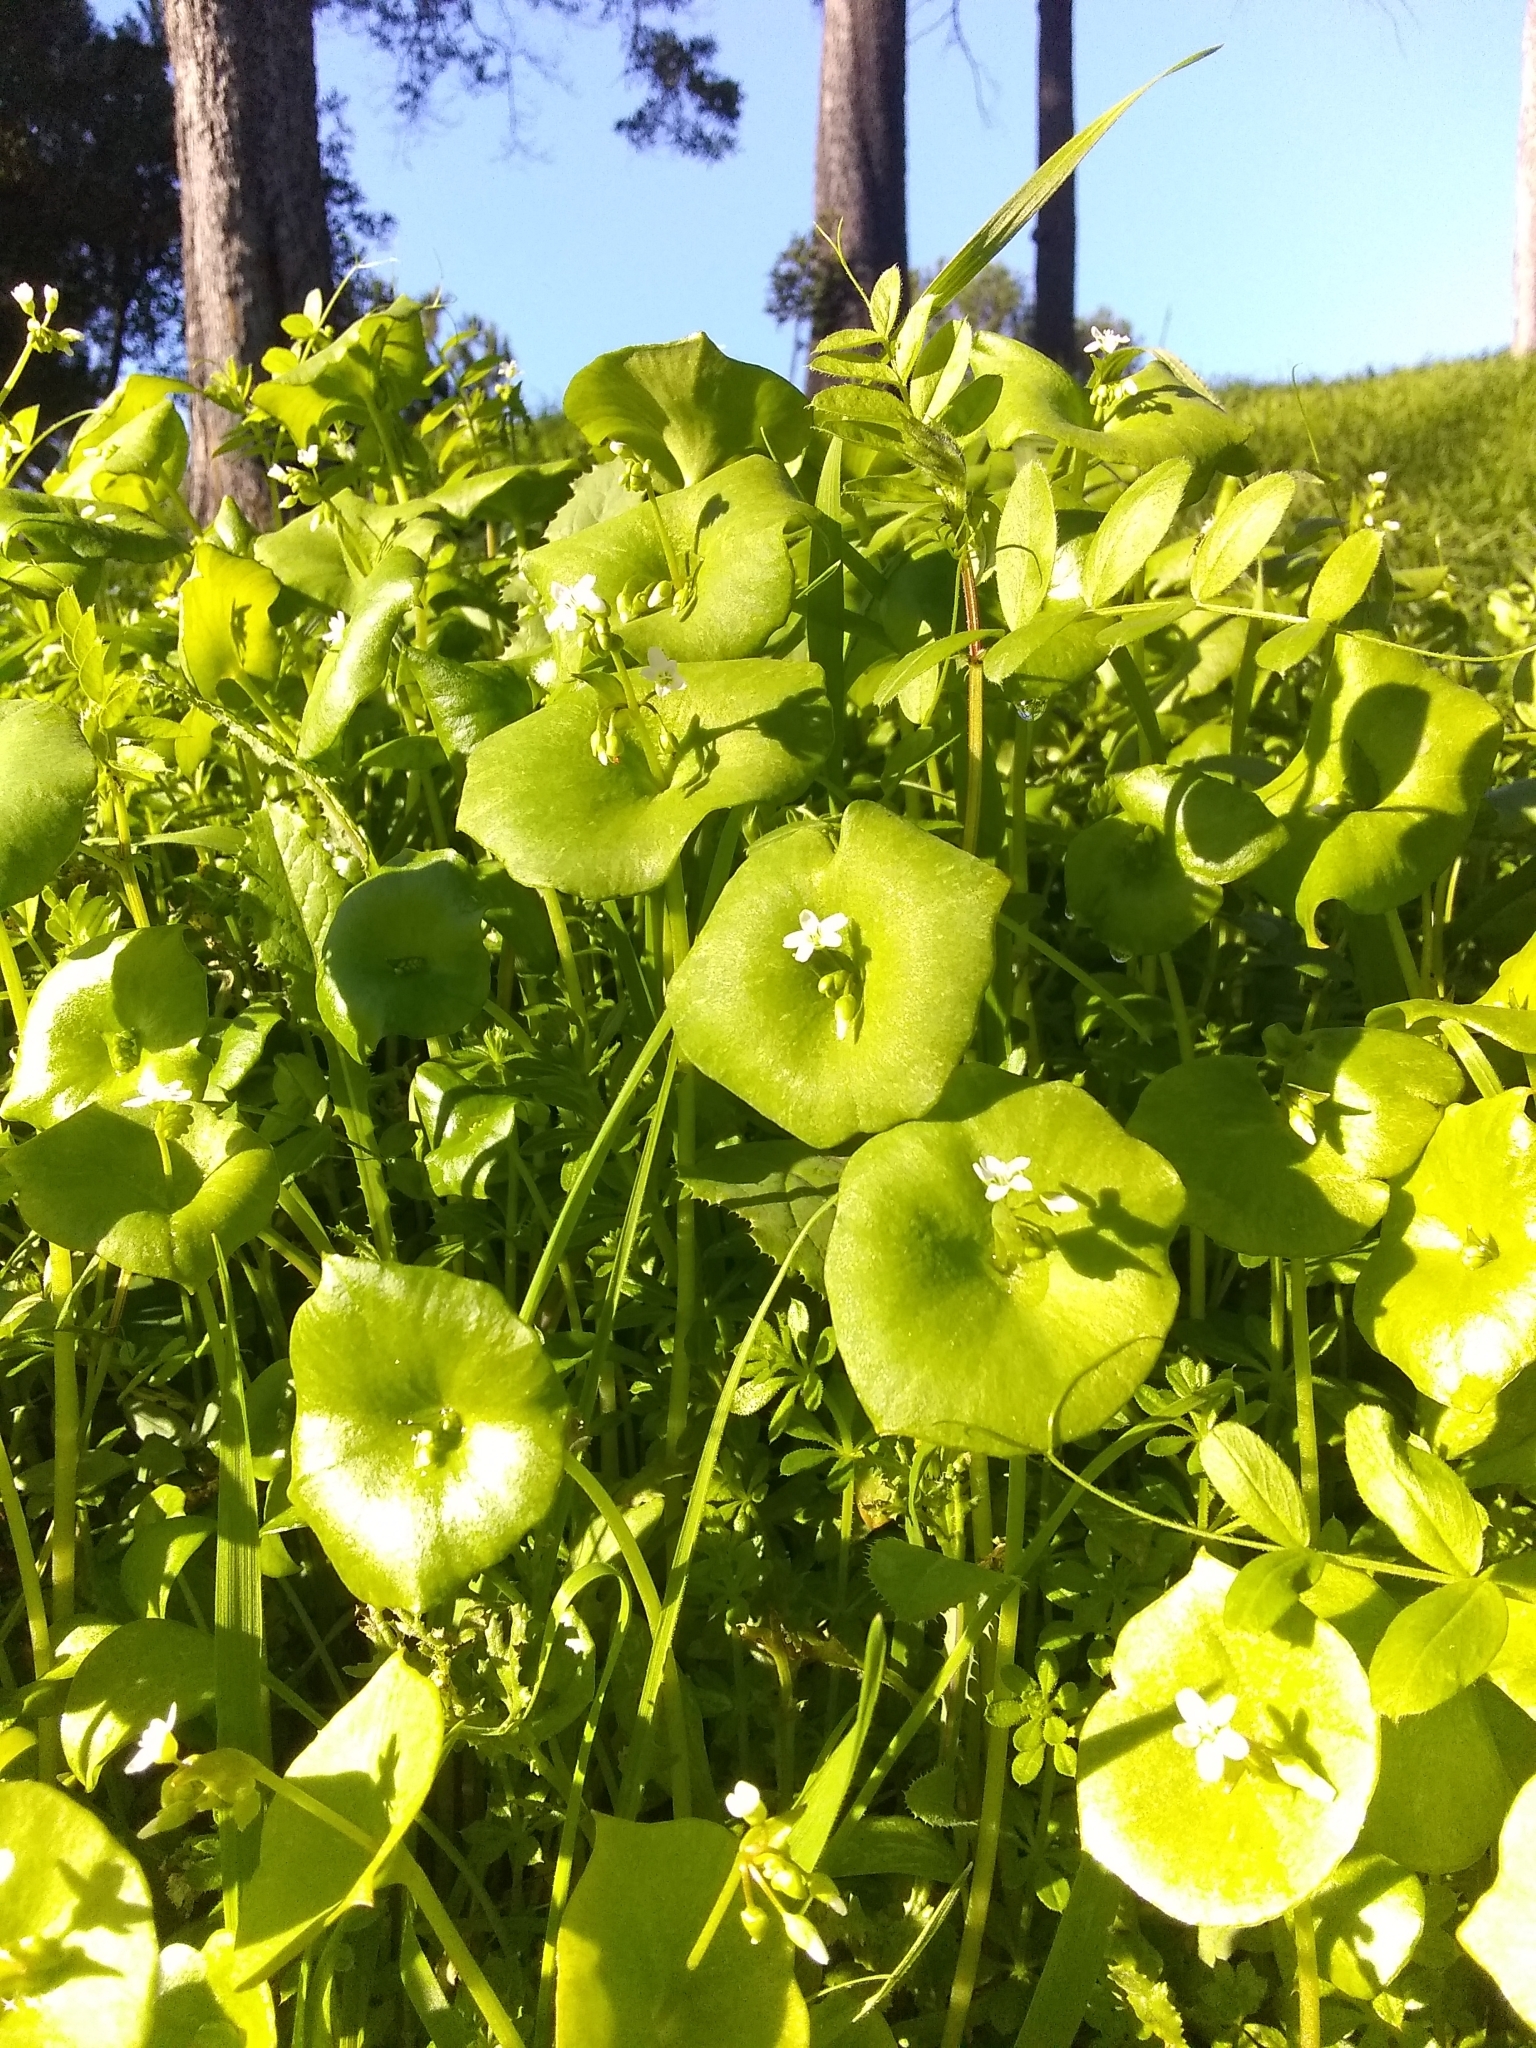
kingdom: Plantae
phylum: Tracheophyta
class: Magnoliopsida
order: Caryophyllales
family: Montiaceae
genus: Claytonia
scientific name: Claytonia perfoliata
